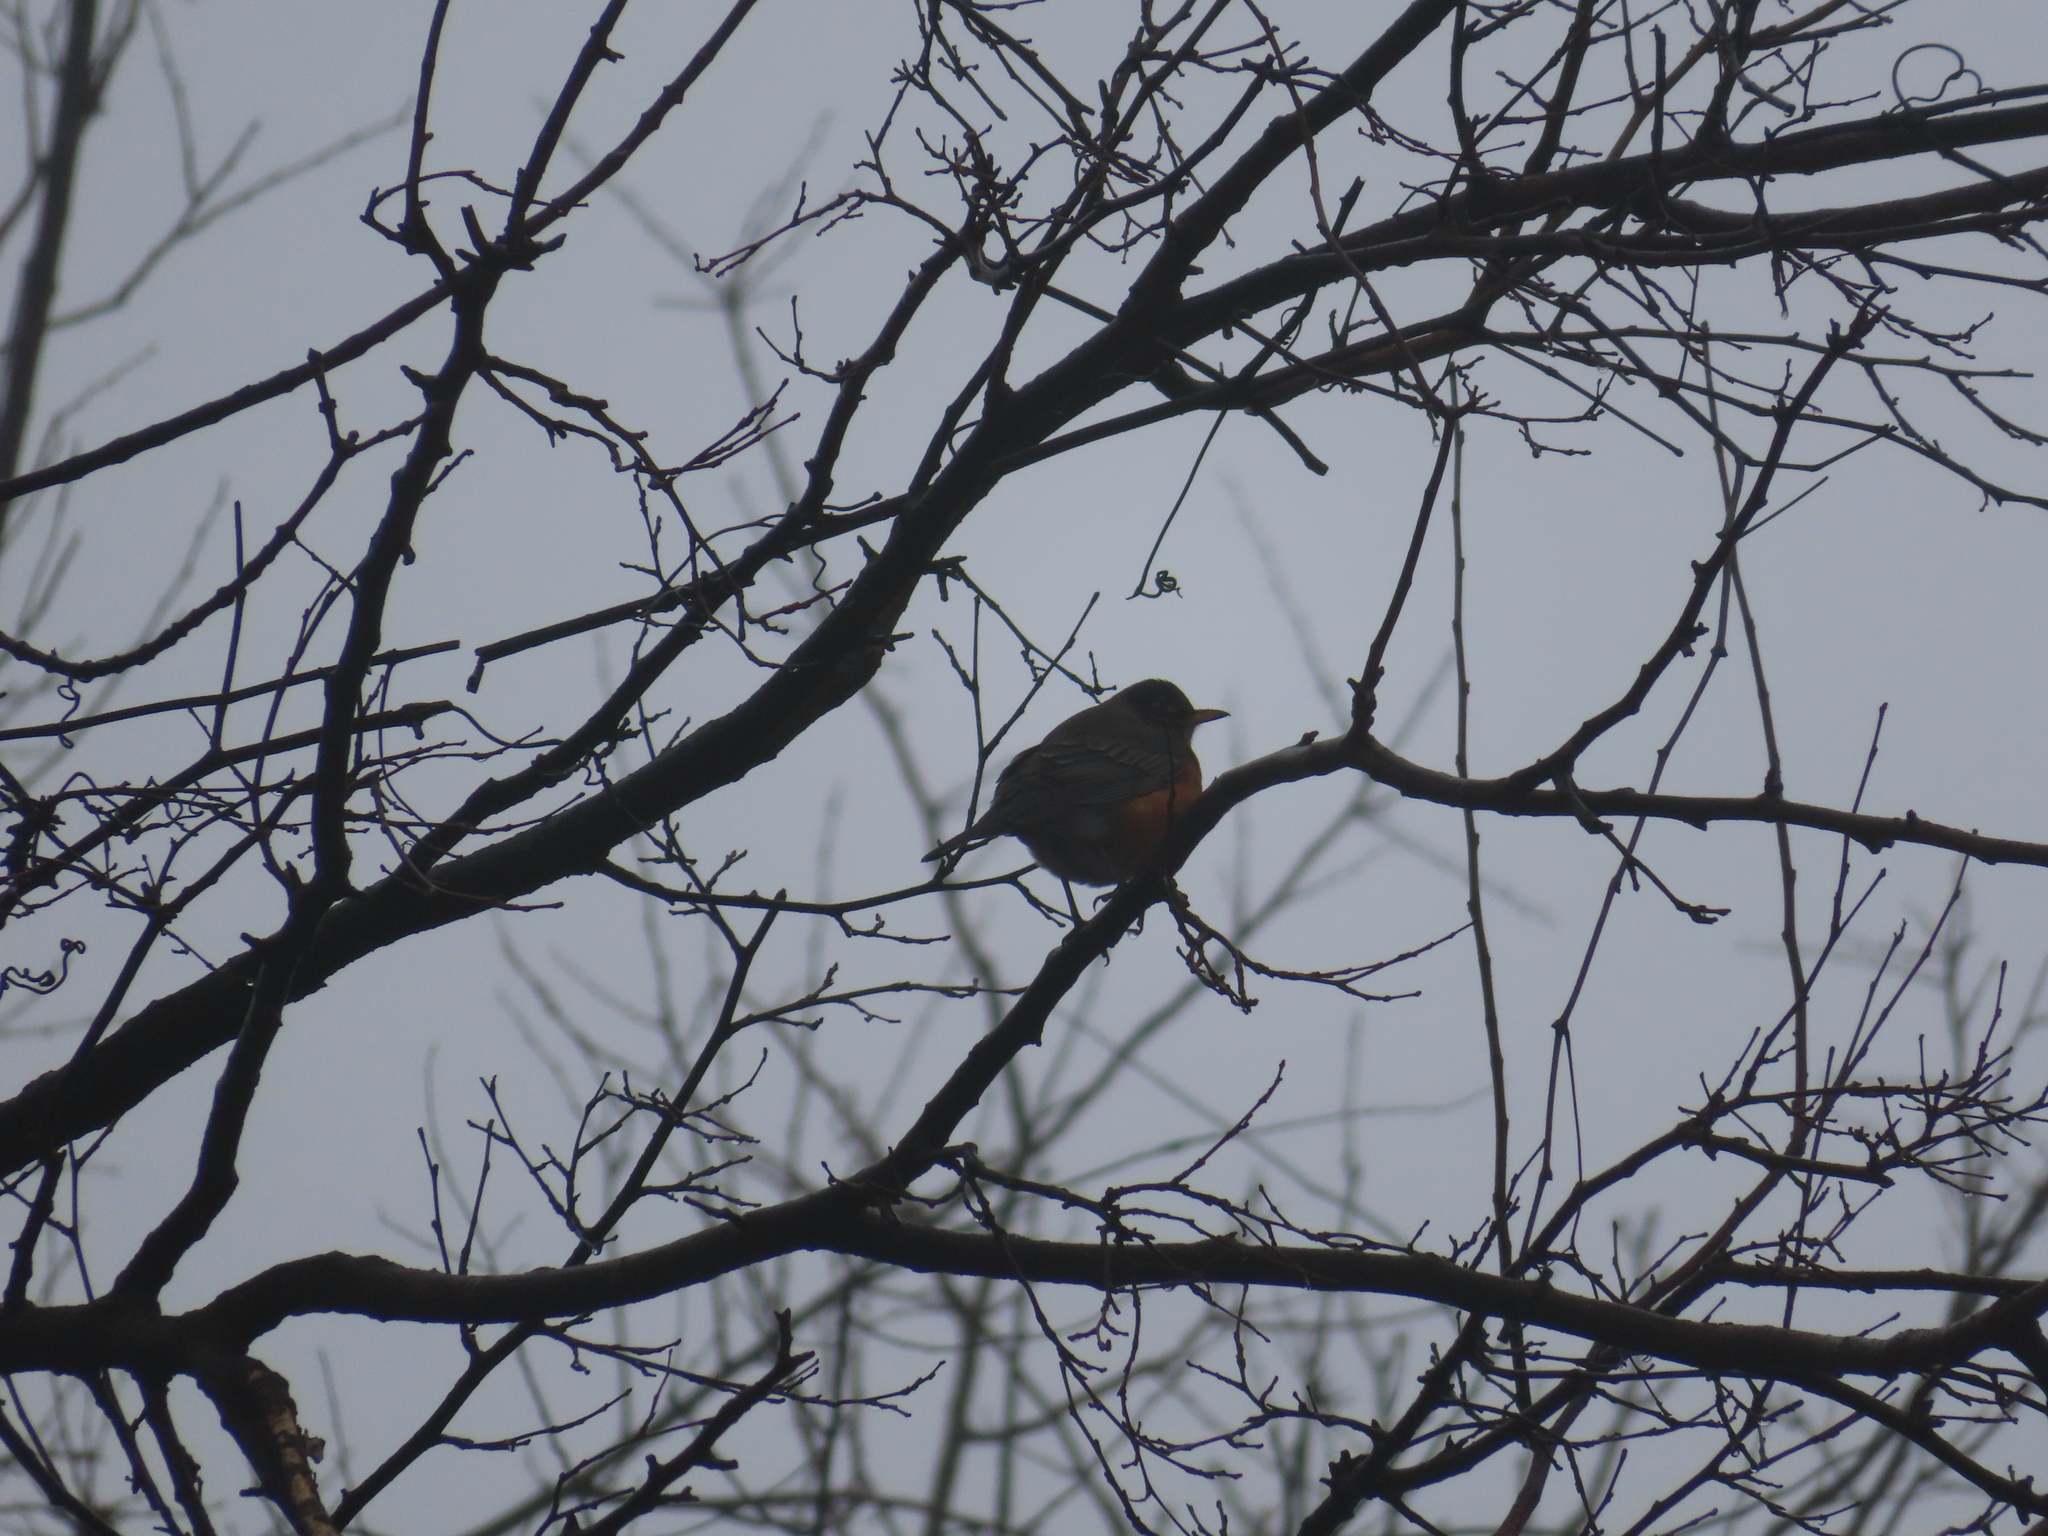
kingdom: Animalia
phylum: Chordata
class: Aves
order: Passeriformes
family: Turdidae
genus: Turdus
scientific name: Turdus migratorius
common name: American robin
